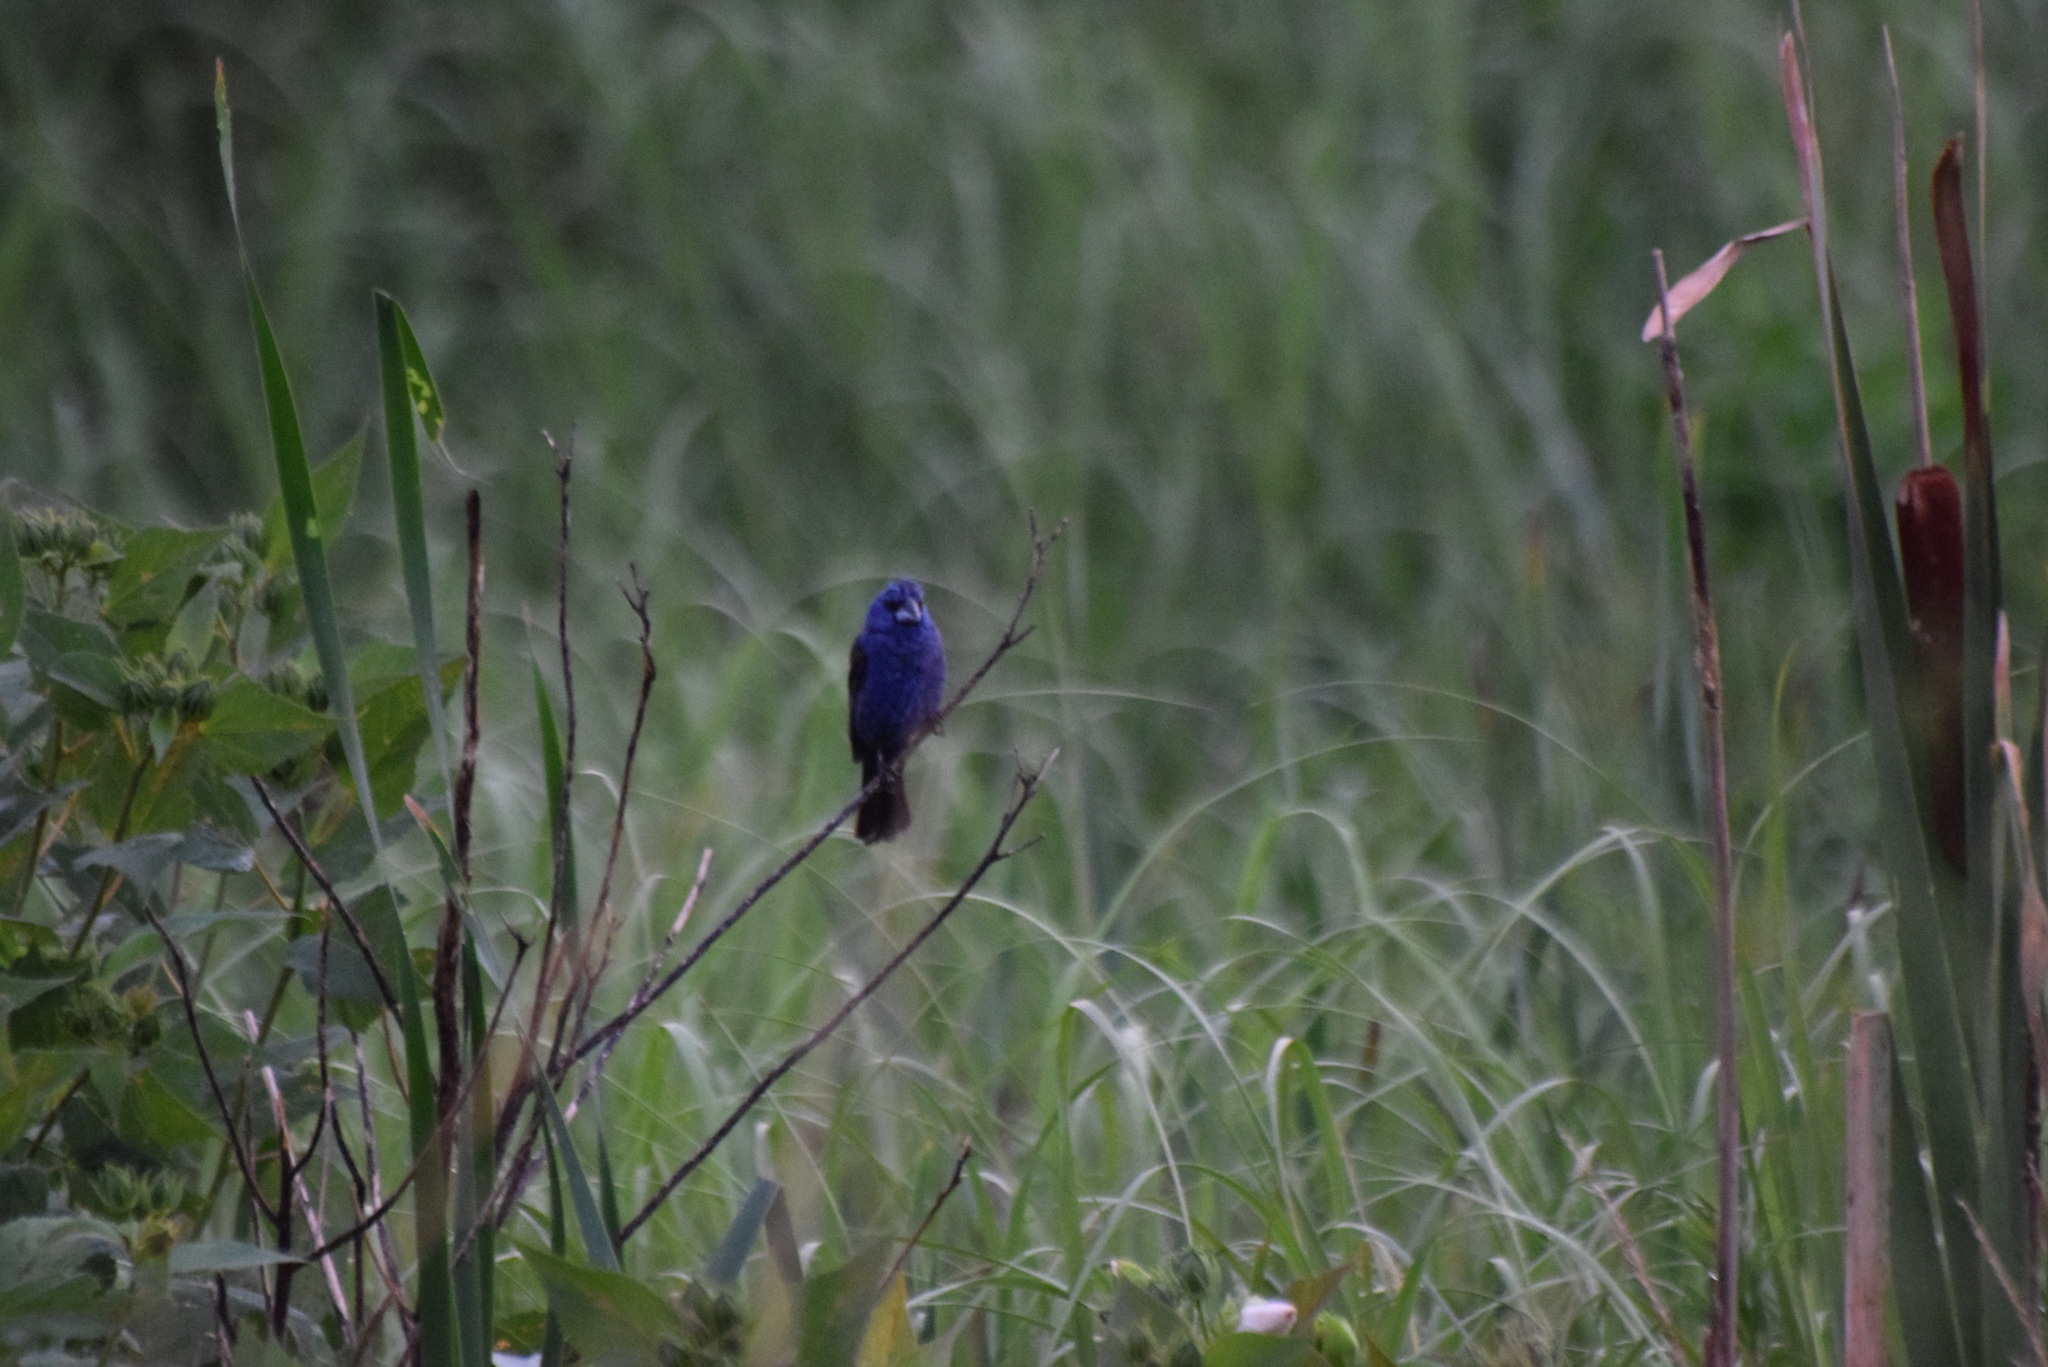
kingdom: Animalia
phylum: Chordata
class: Aves
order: Passeriformes
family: Cardinalidae
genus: Passerina
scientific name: Passerina caerulea
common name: Blue grosbeak
